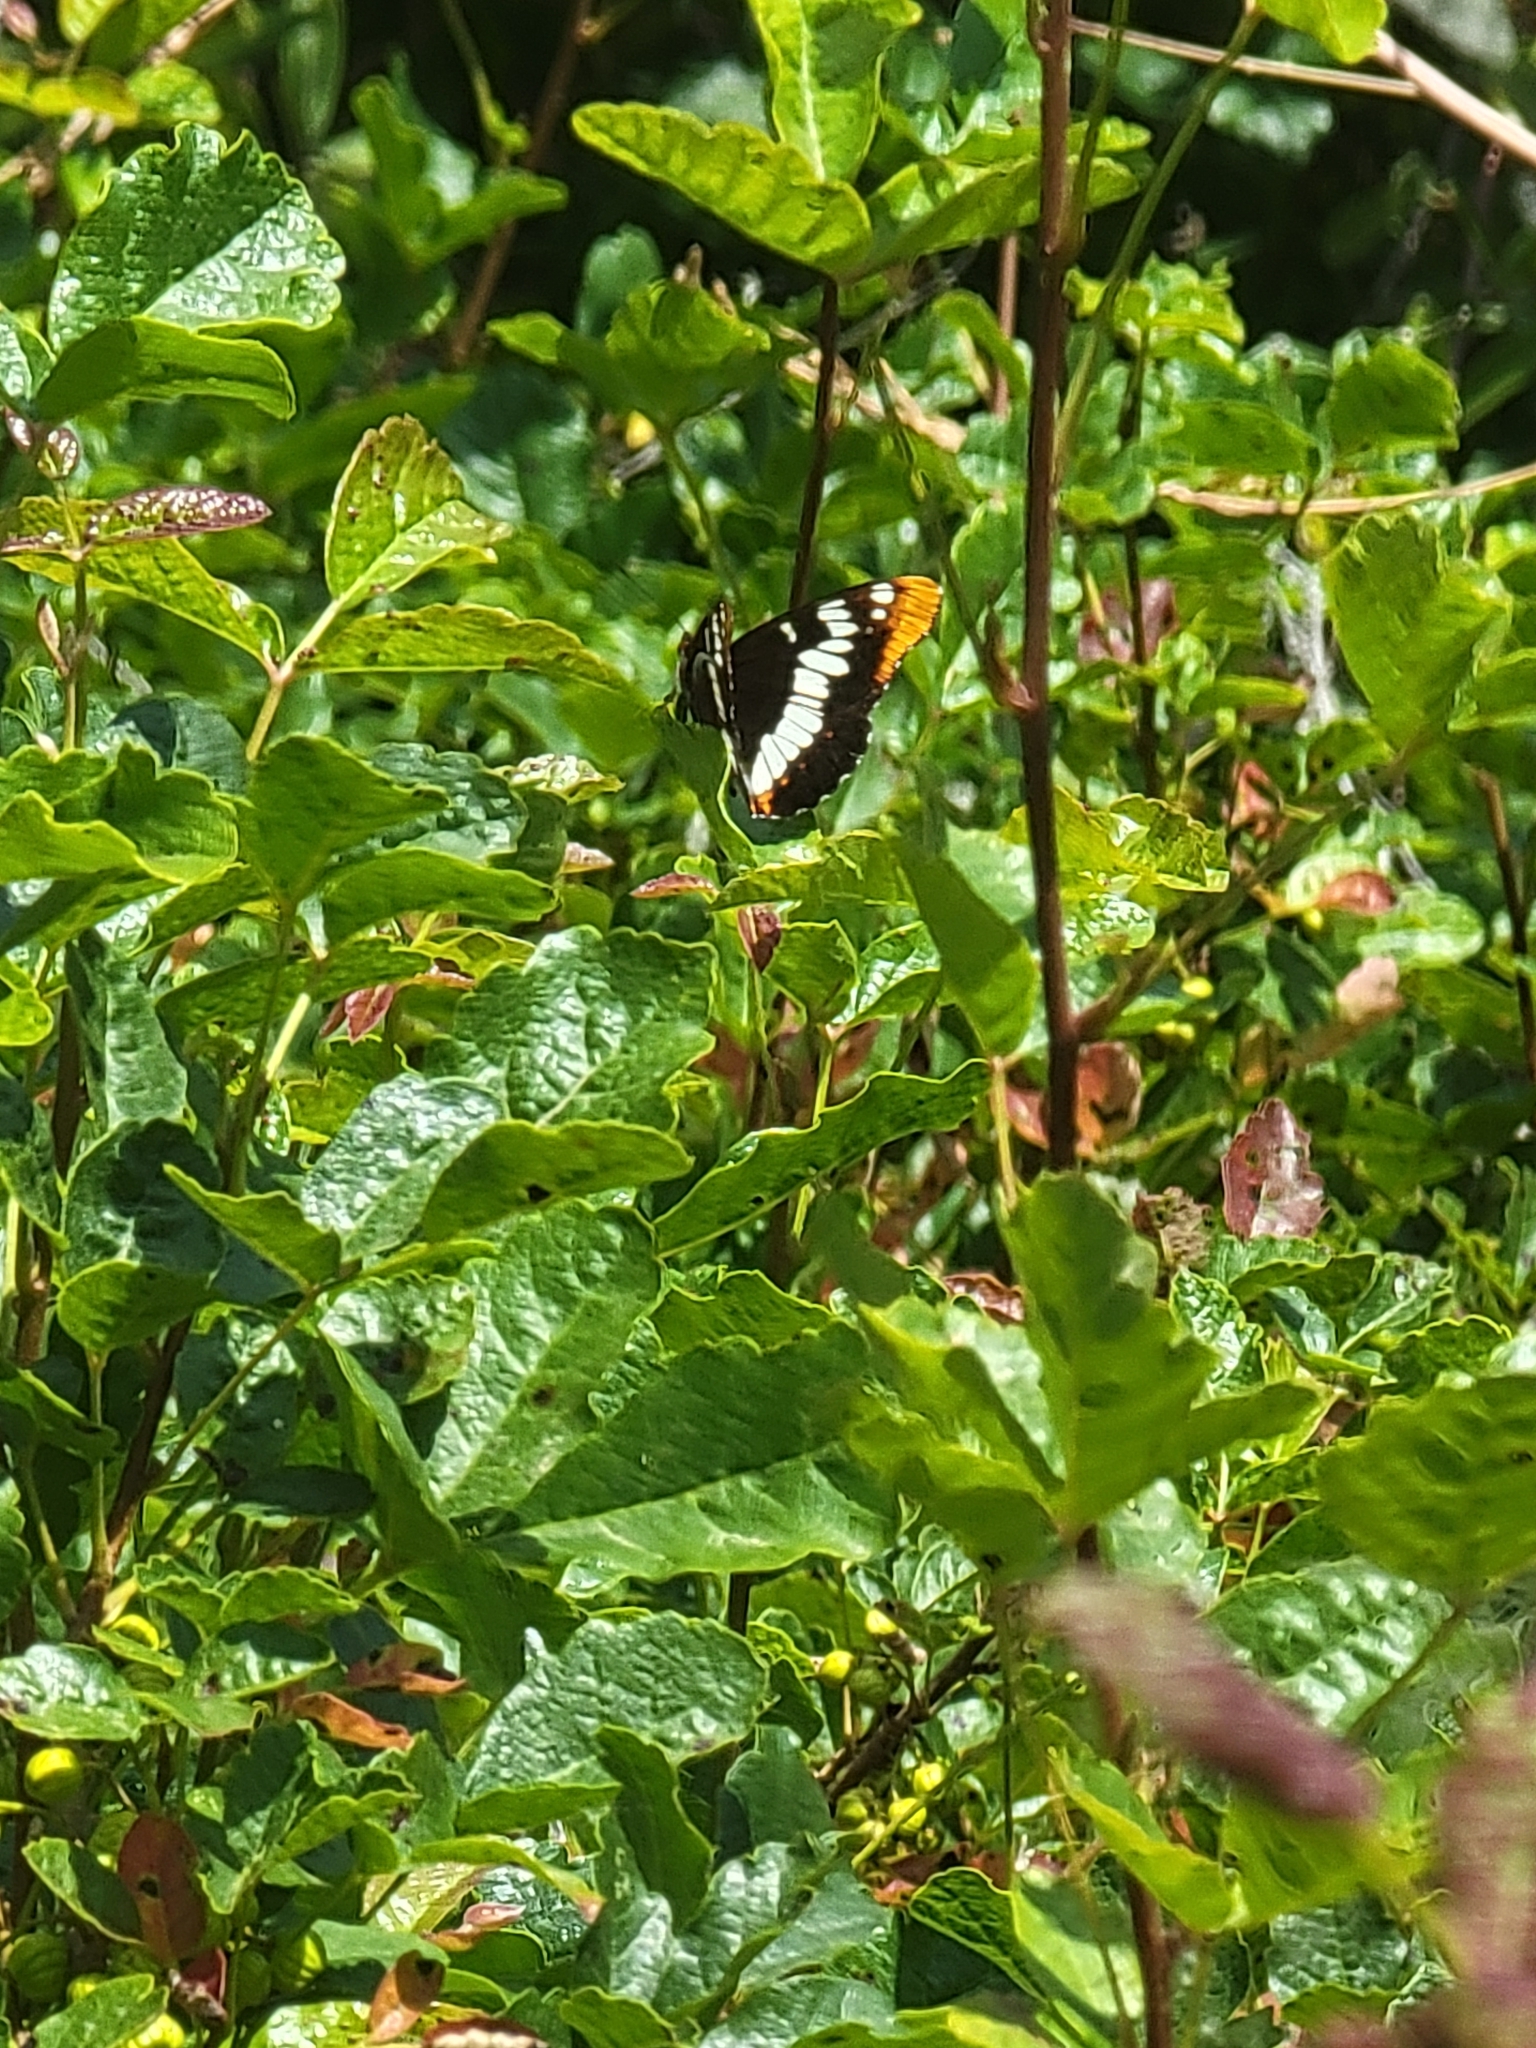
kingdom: Animalia
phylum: Arthropoda
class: Insecta
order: Lepidoptera
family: Nymphalidae
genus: Limenitis
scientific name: Limenitis lorquini
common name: Lorquin's admiral
